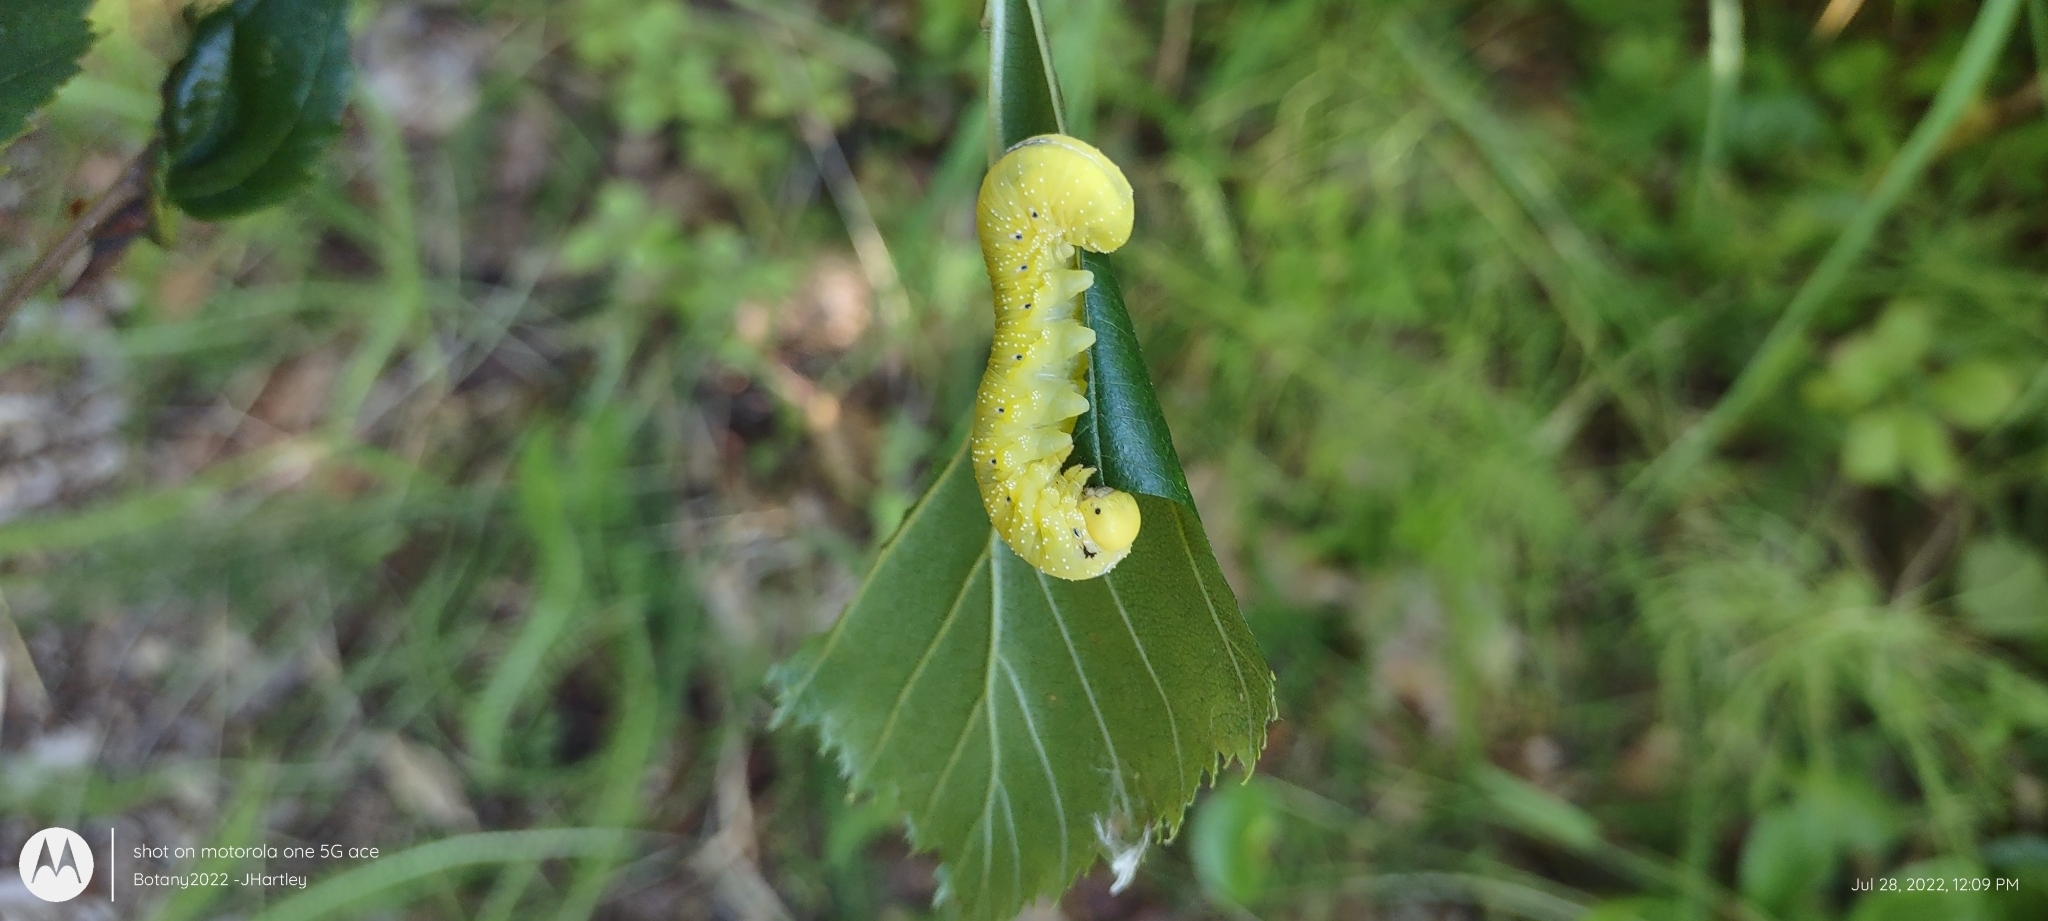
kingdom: Animalia
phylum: Arthropoda
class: Insecta
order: Hymenoptera
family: Cimbicidae
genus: Cimbex
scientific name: Cimbex americana
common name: Elm sawfly
